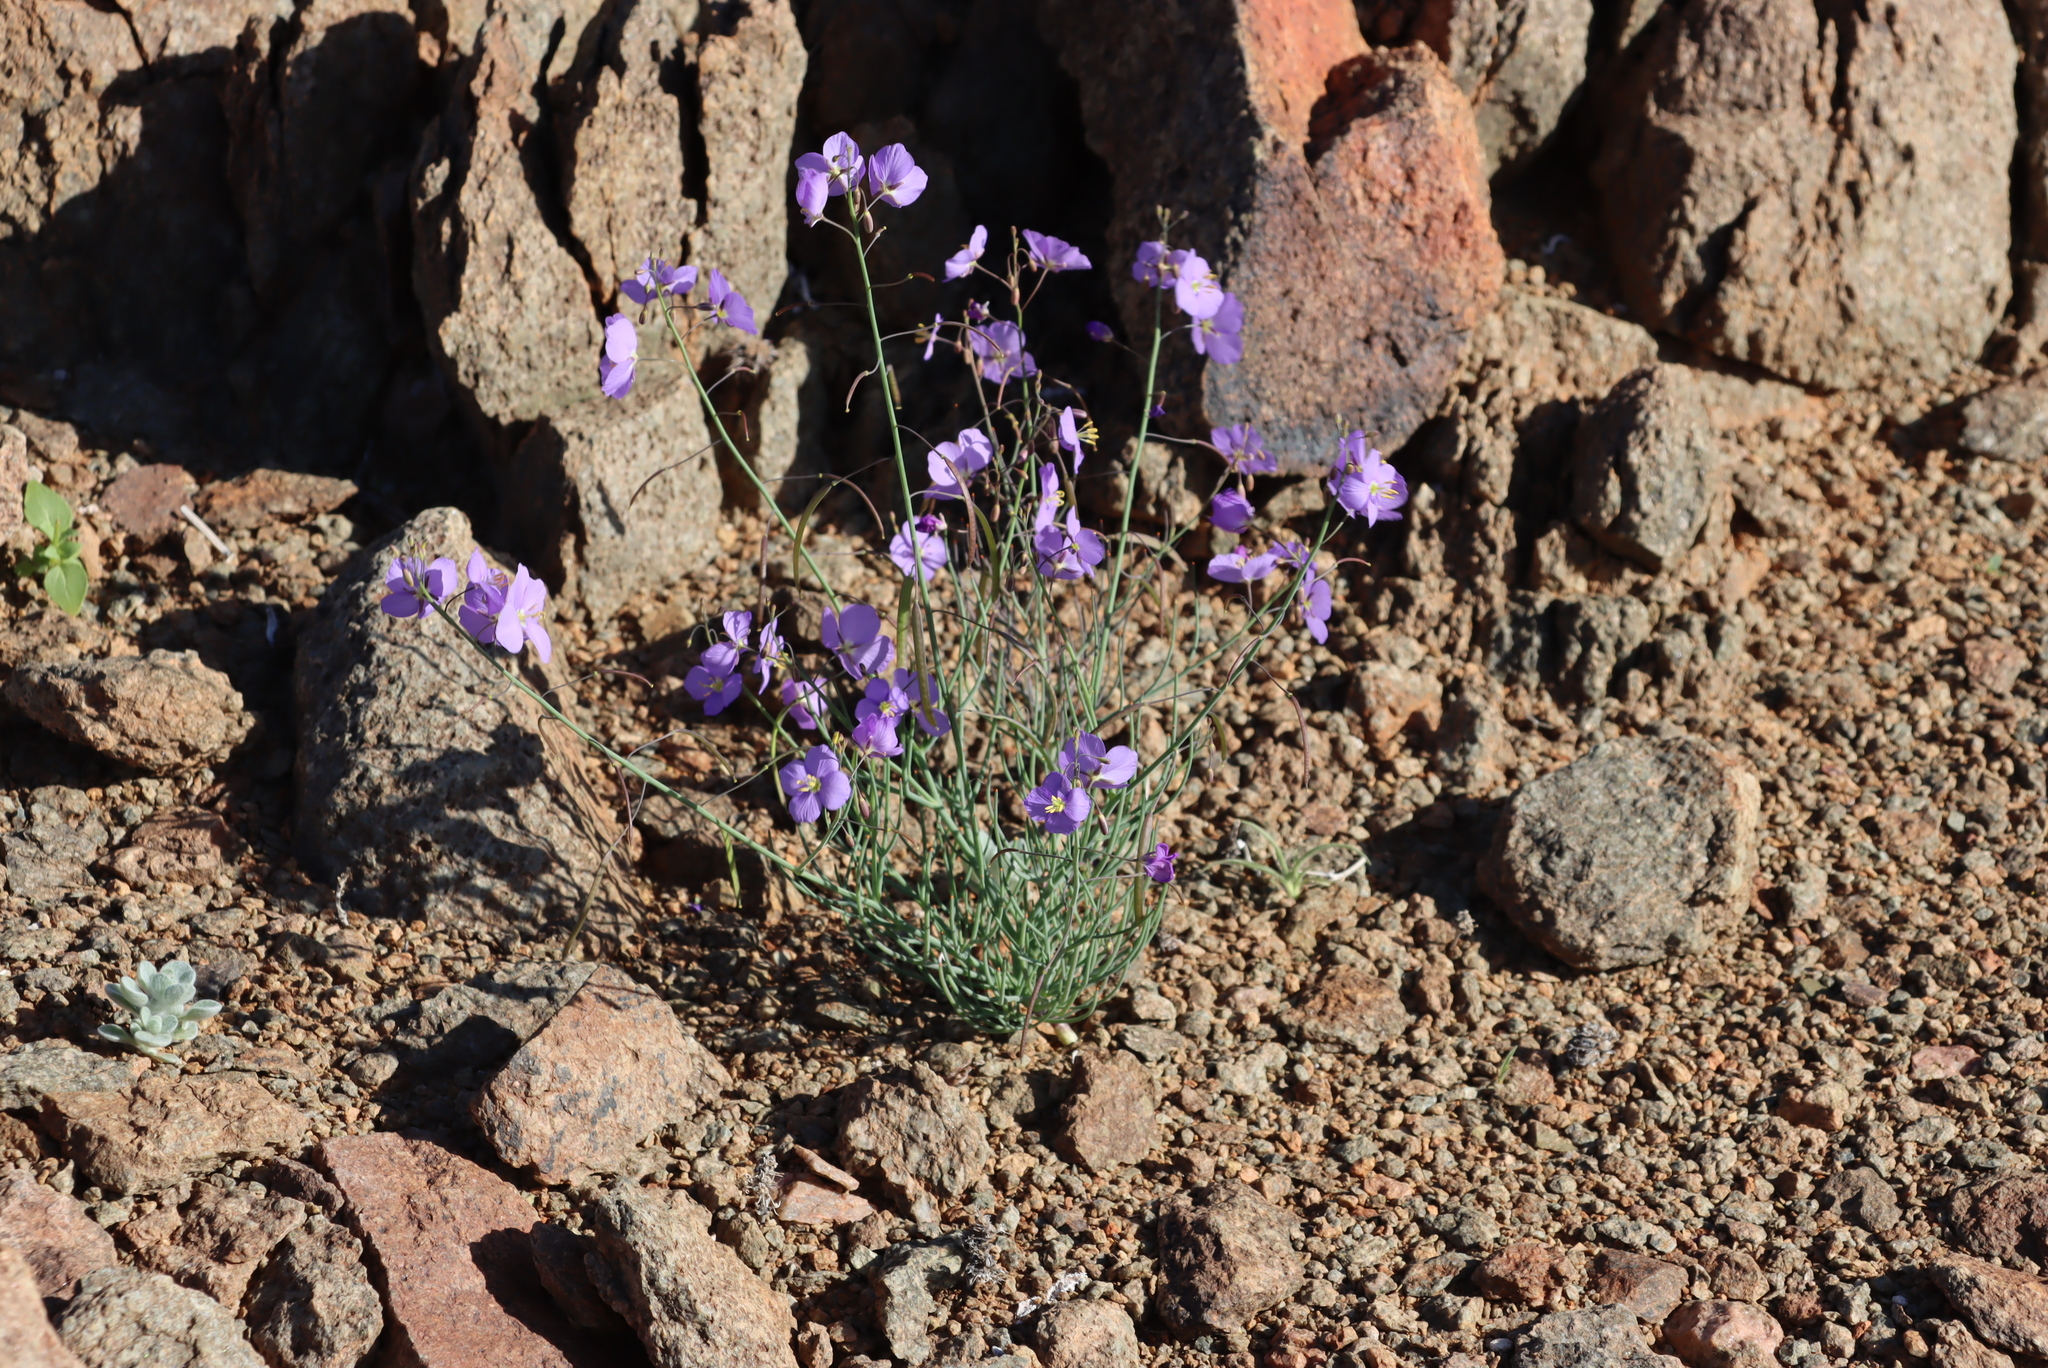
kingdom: Plantae
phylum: Tracheophyta
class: Magnoliopsida
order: Brassicales
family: Brassicaceae
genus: Heliophila
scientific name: Heliophila trifurca
